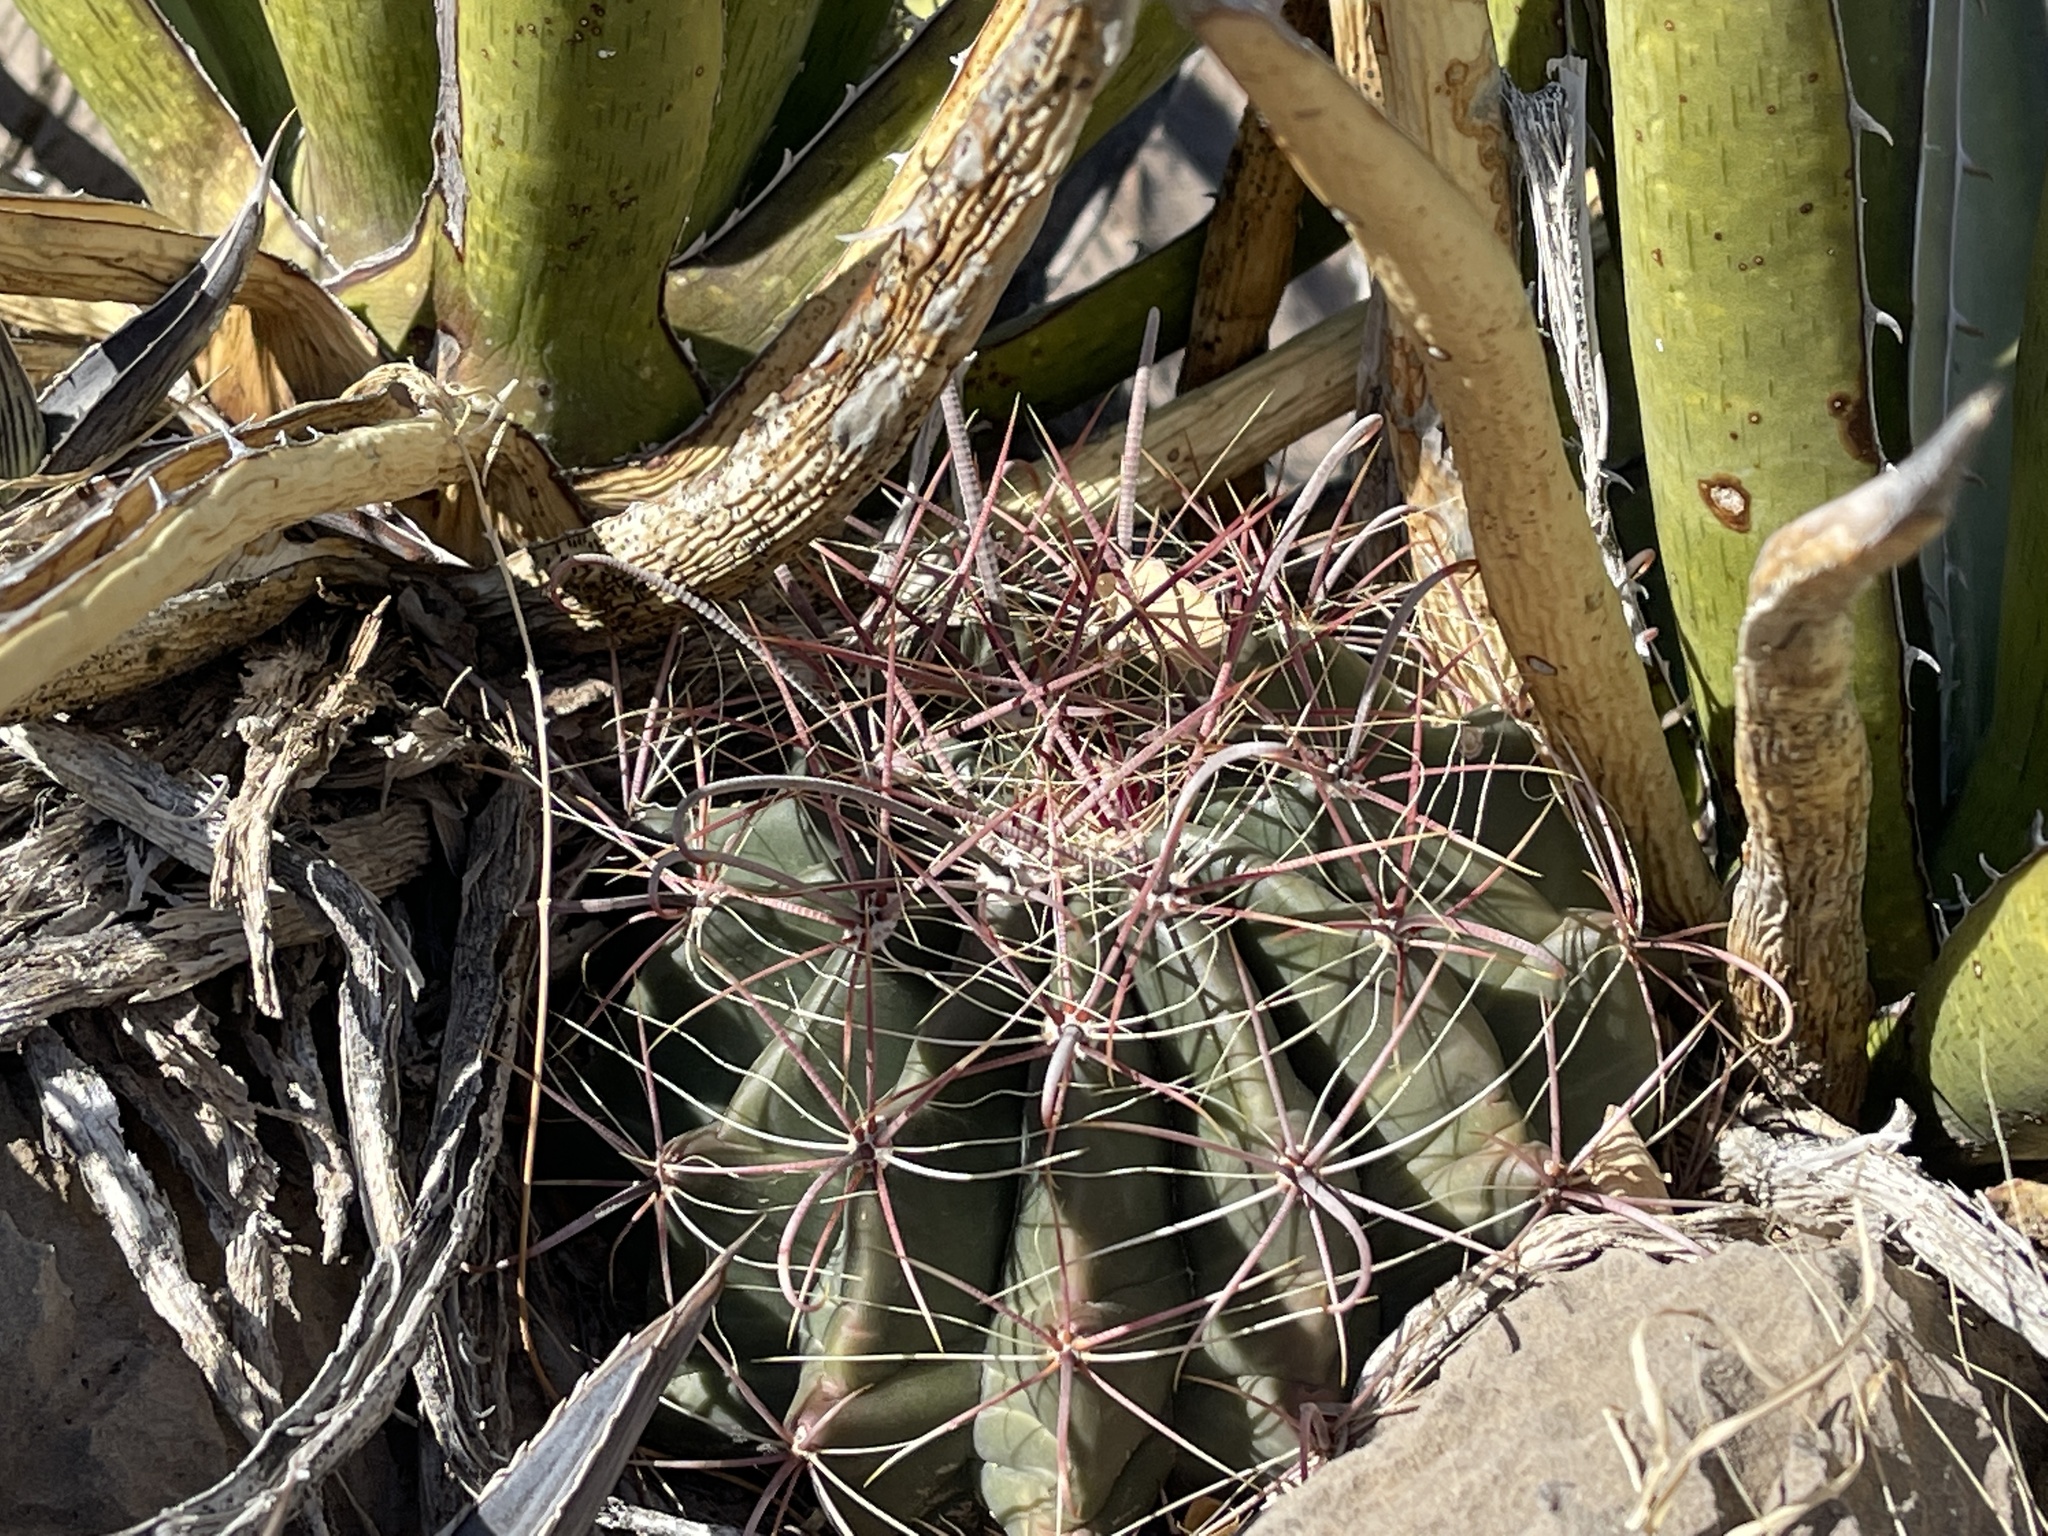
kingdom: Plantae
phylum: Tracheophyta
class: Magnoliopsida
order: Caryophyllales
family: Cactaceae
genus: Ferocactus
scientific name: Ferocactus wislizeni
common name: Candy barrel cactus
